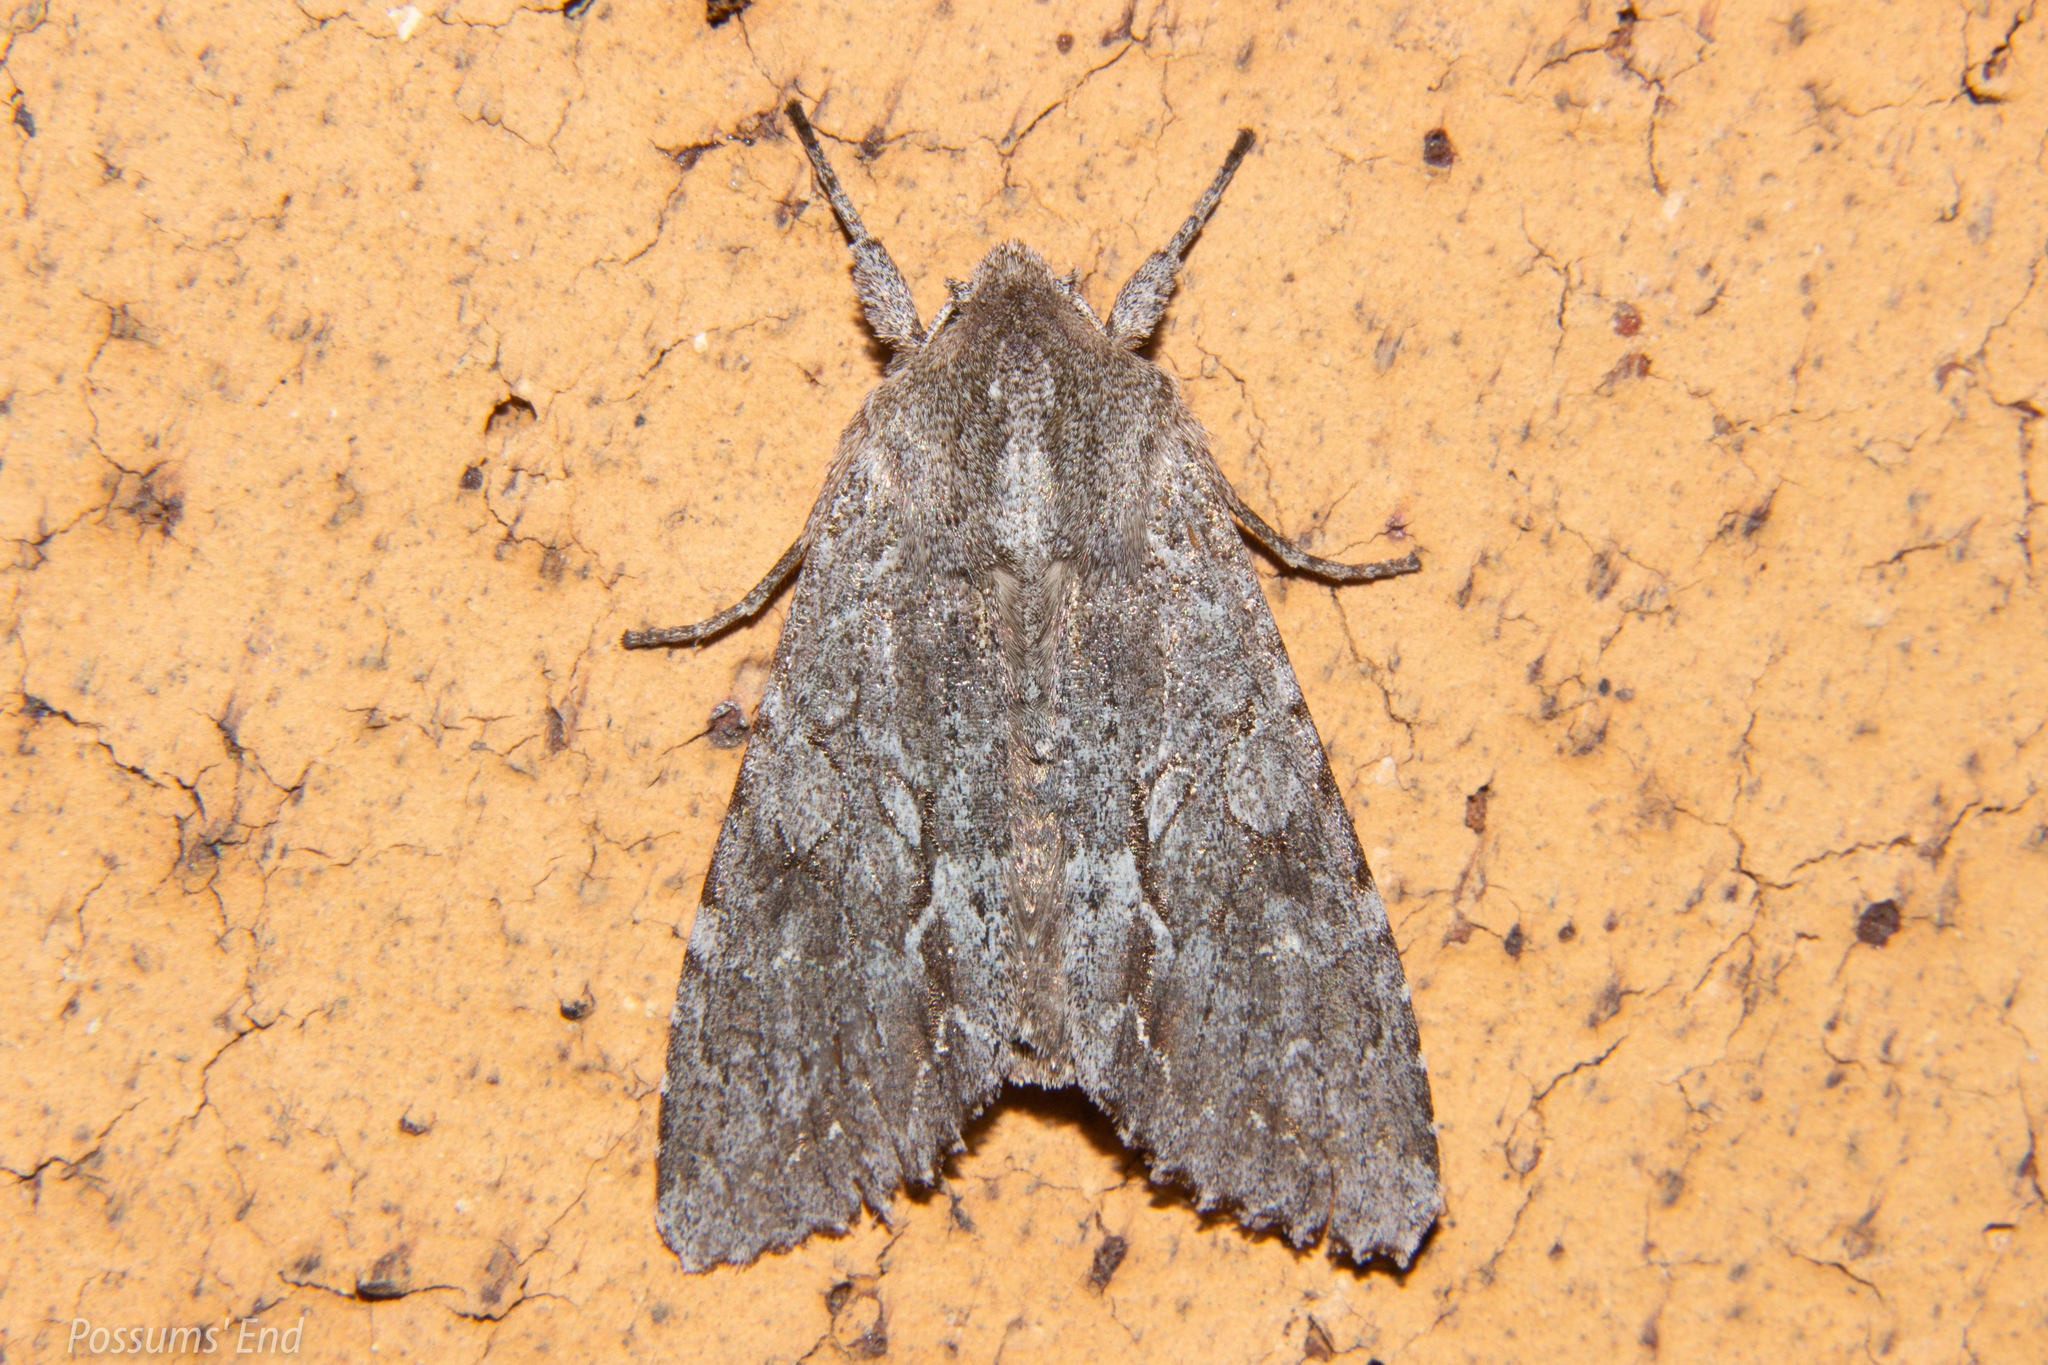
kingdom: Animalia
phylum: Arthropoda
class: Insecta
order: Lepidoptera
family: Noctuidae
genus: Ichneutica
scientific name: Ichneutica
